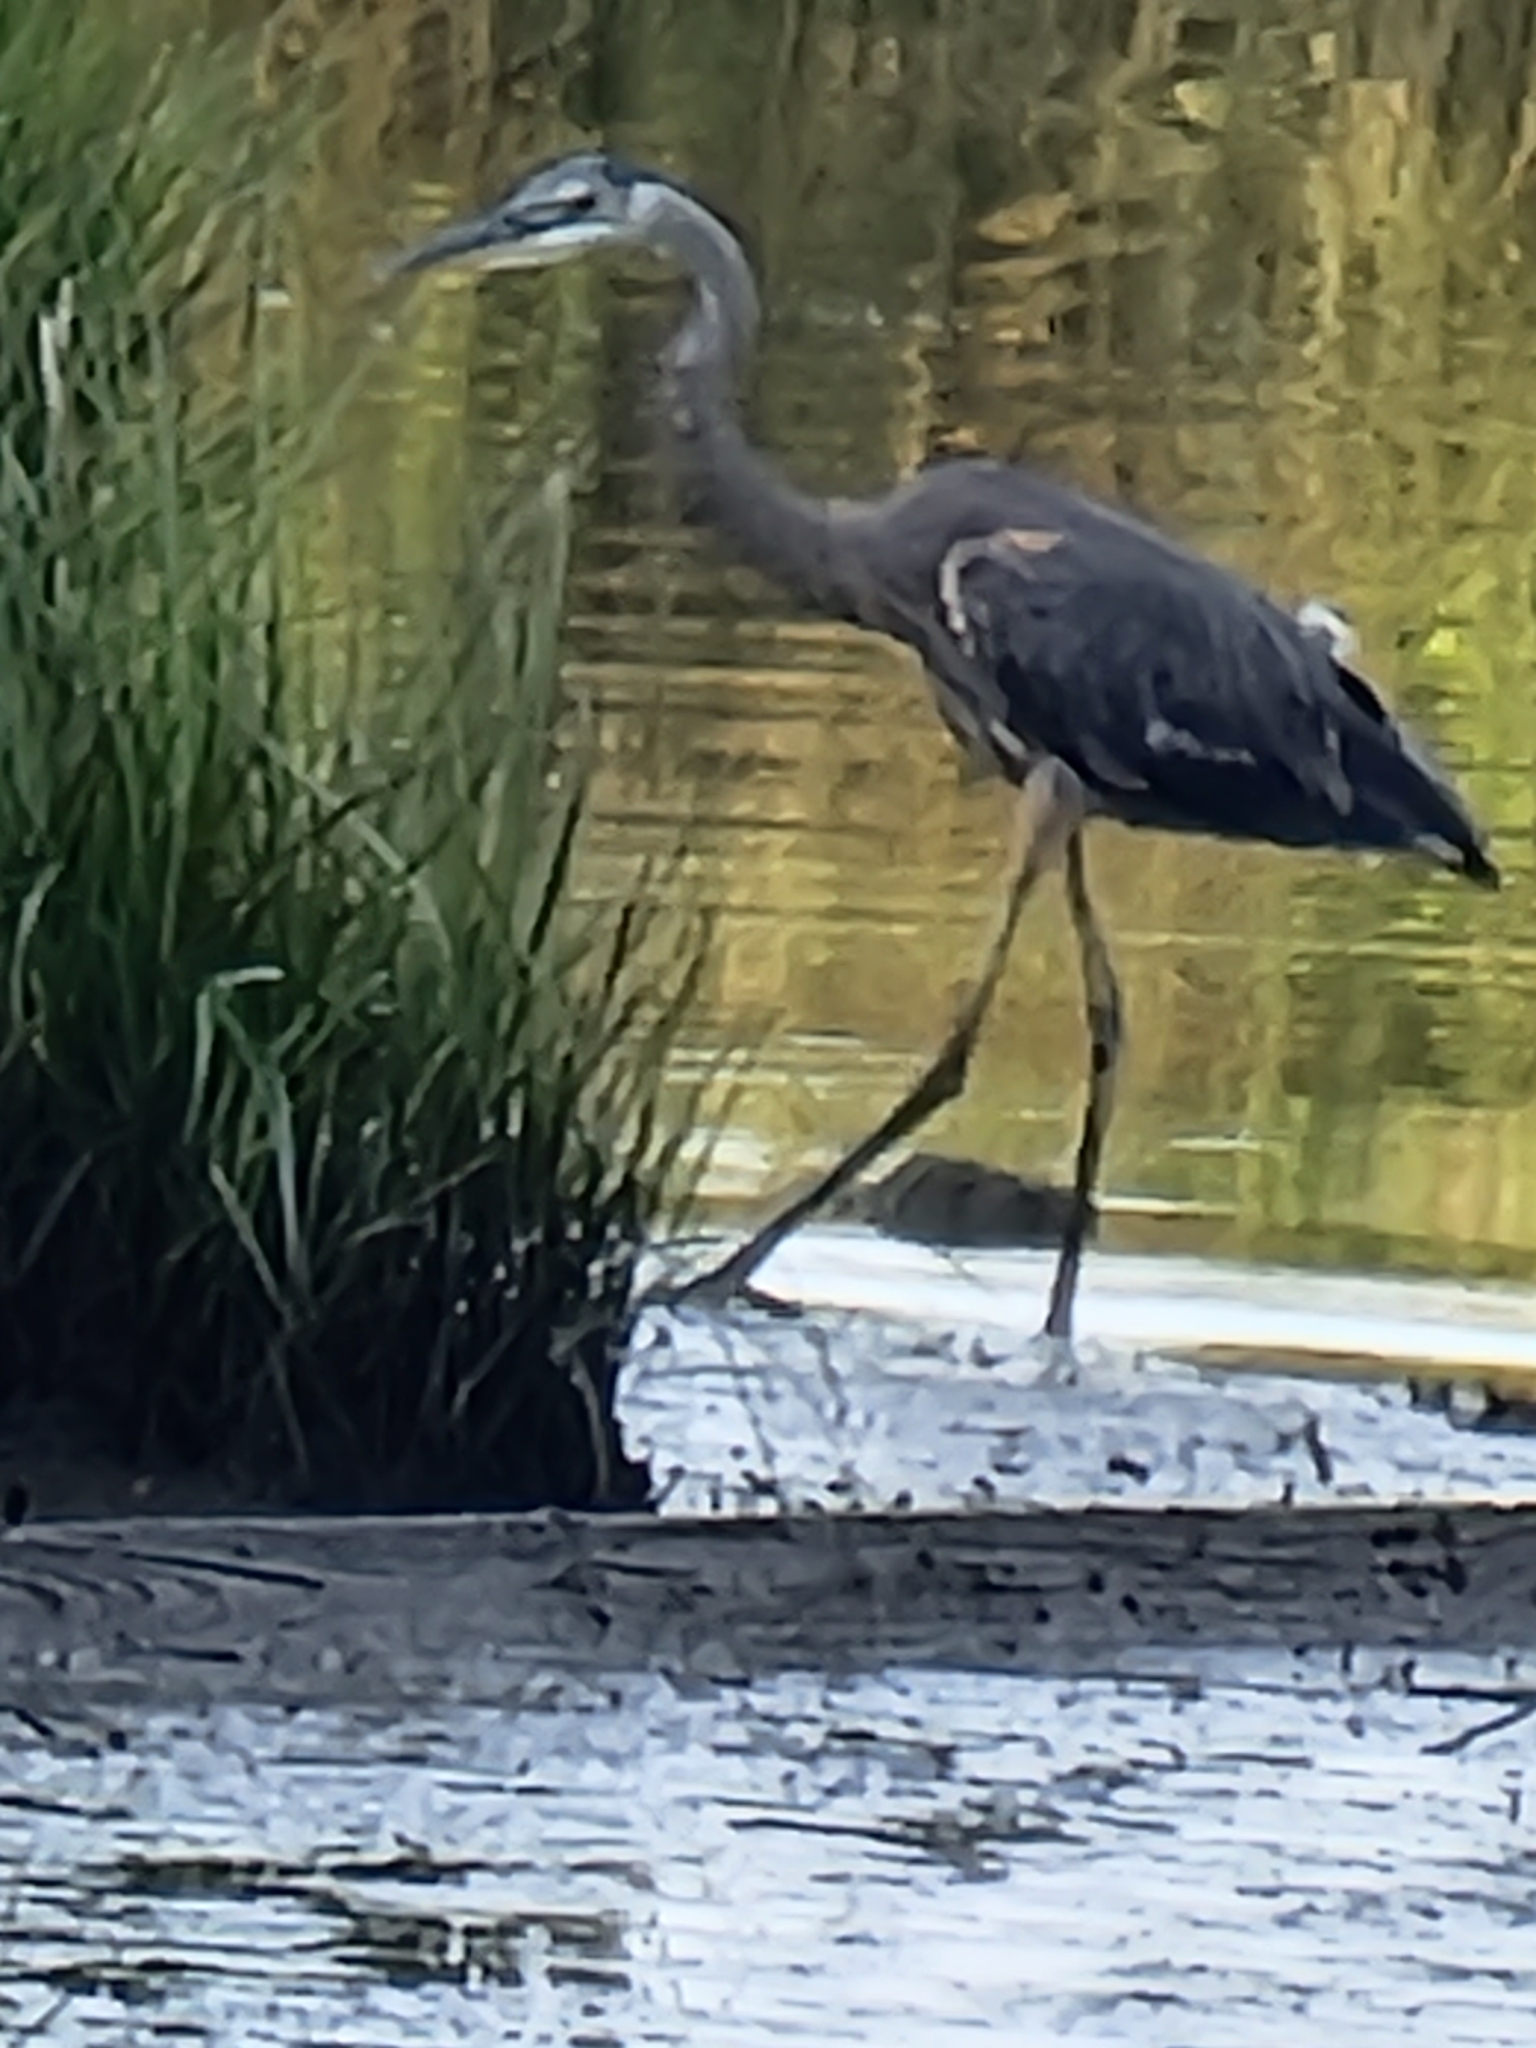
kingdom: Animalia
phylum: Chordata
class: Aves
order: Pelecaniformes
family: Ardeidae
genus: Ardea
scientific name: Ardea herodias
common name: Great blue heron
